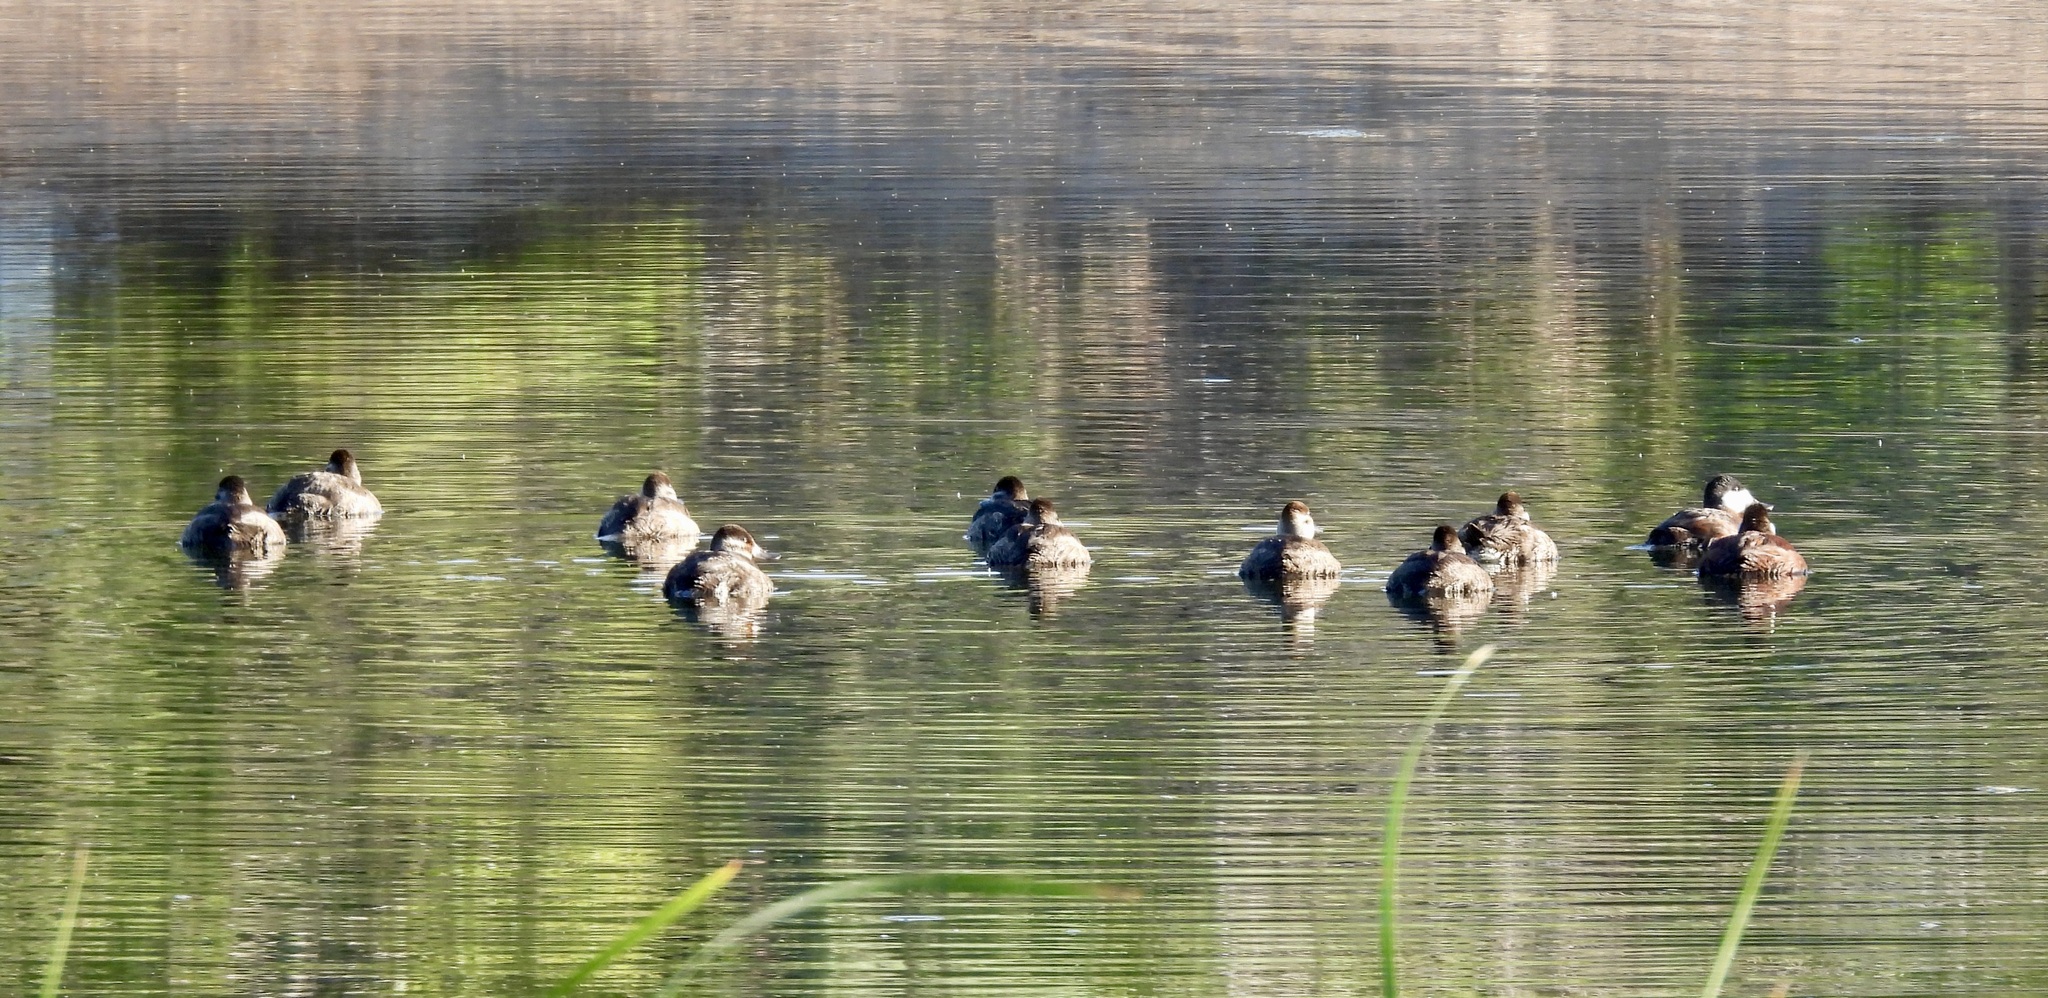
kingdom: Animalia
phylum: Chordata
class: Aves
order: Anseriformes
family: Anatidae
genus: Oxyura
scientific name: Oxyura jamaicensis
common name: Ruddy duck
